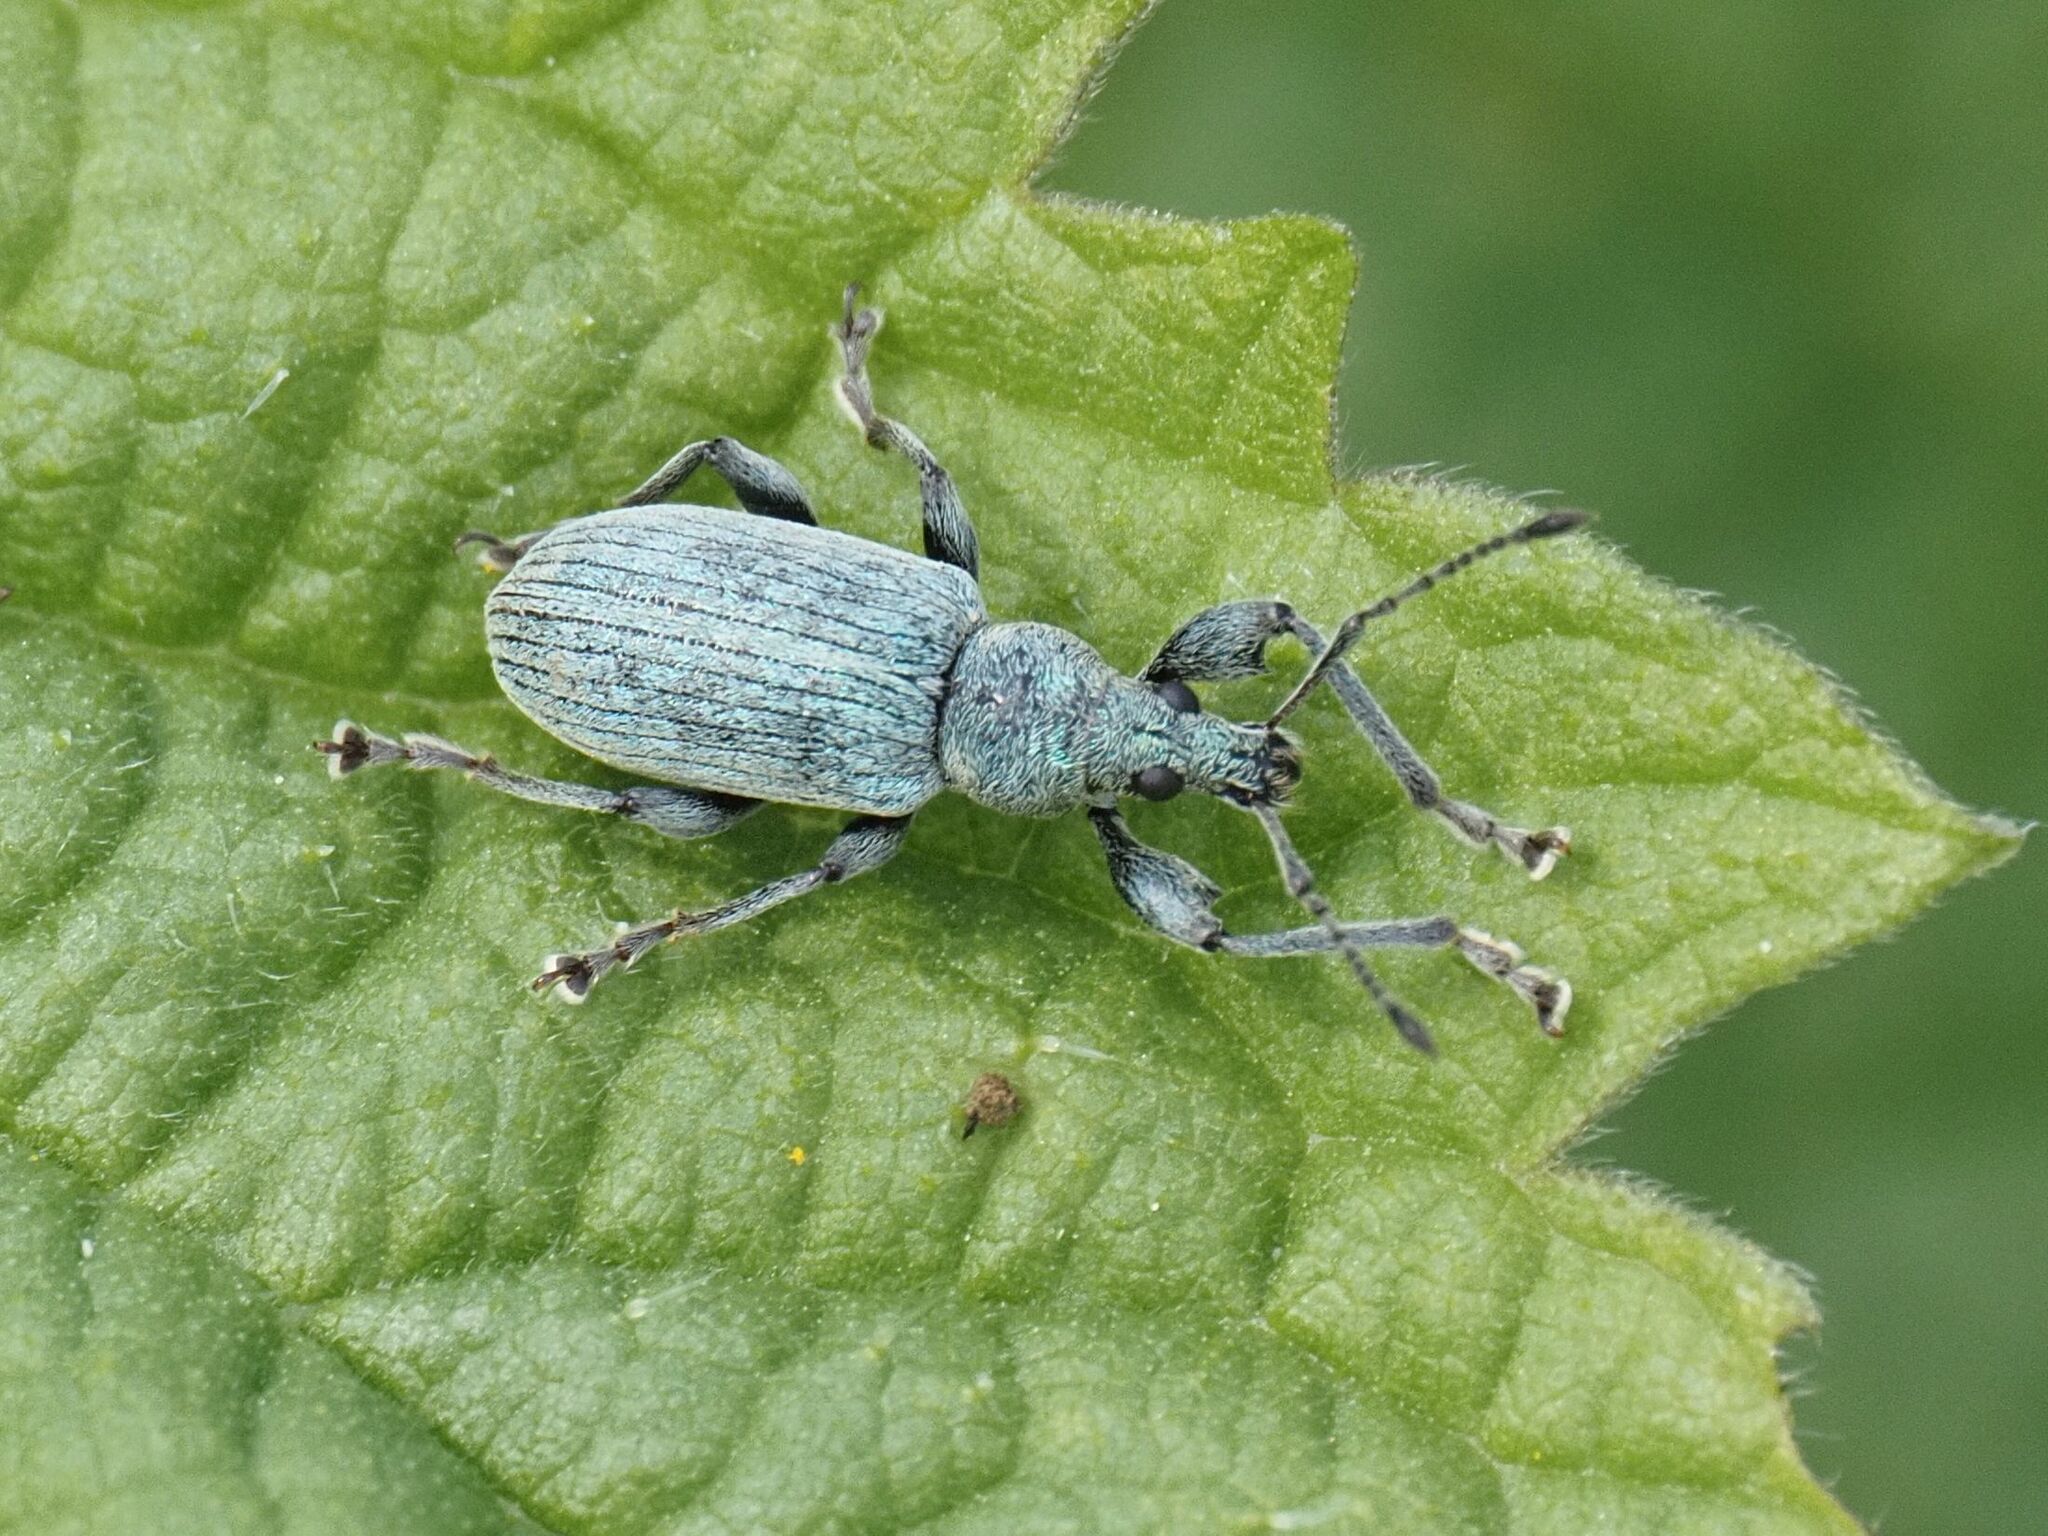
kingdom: Animalia
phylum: Arthropoda
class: Insecta
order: Coleoptera
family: Curculionidae
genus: Phyllobius
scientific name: Phyllobius pomaceus
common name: Green nettle weevil
